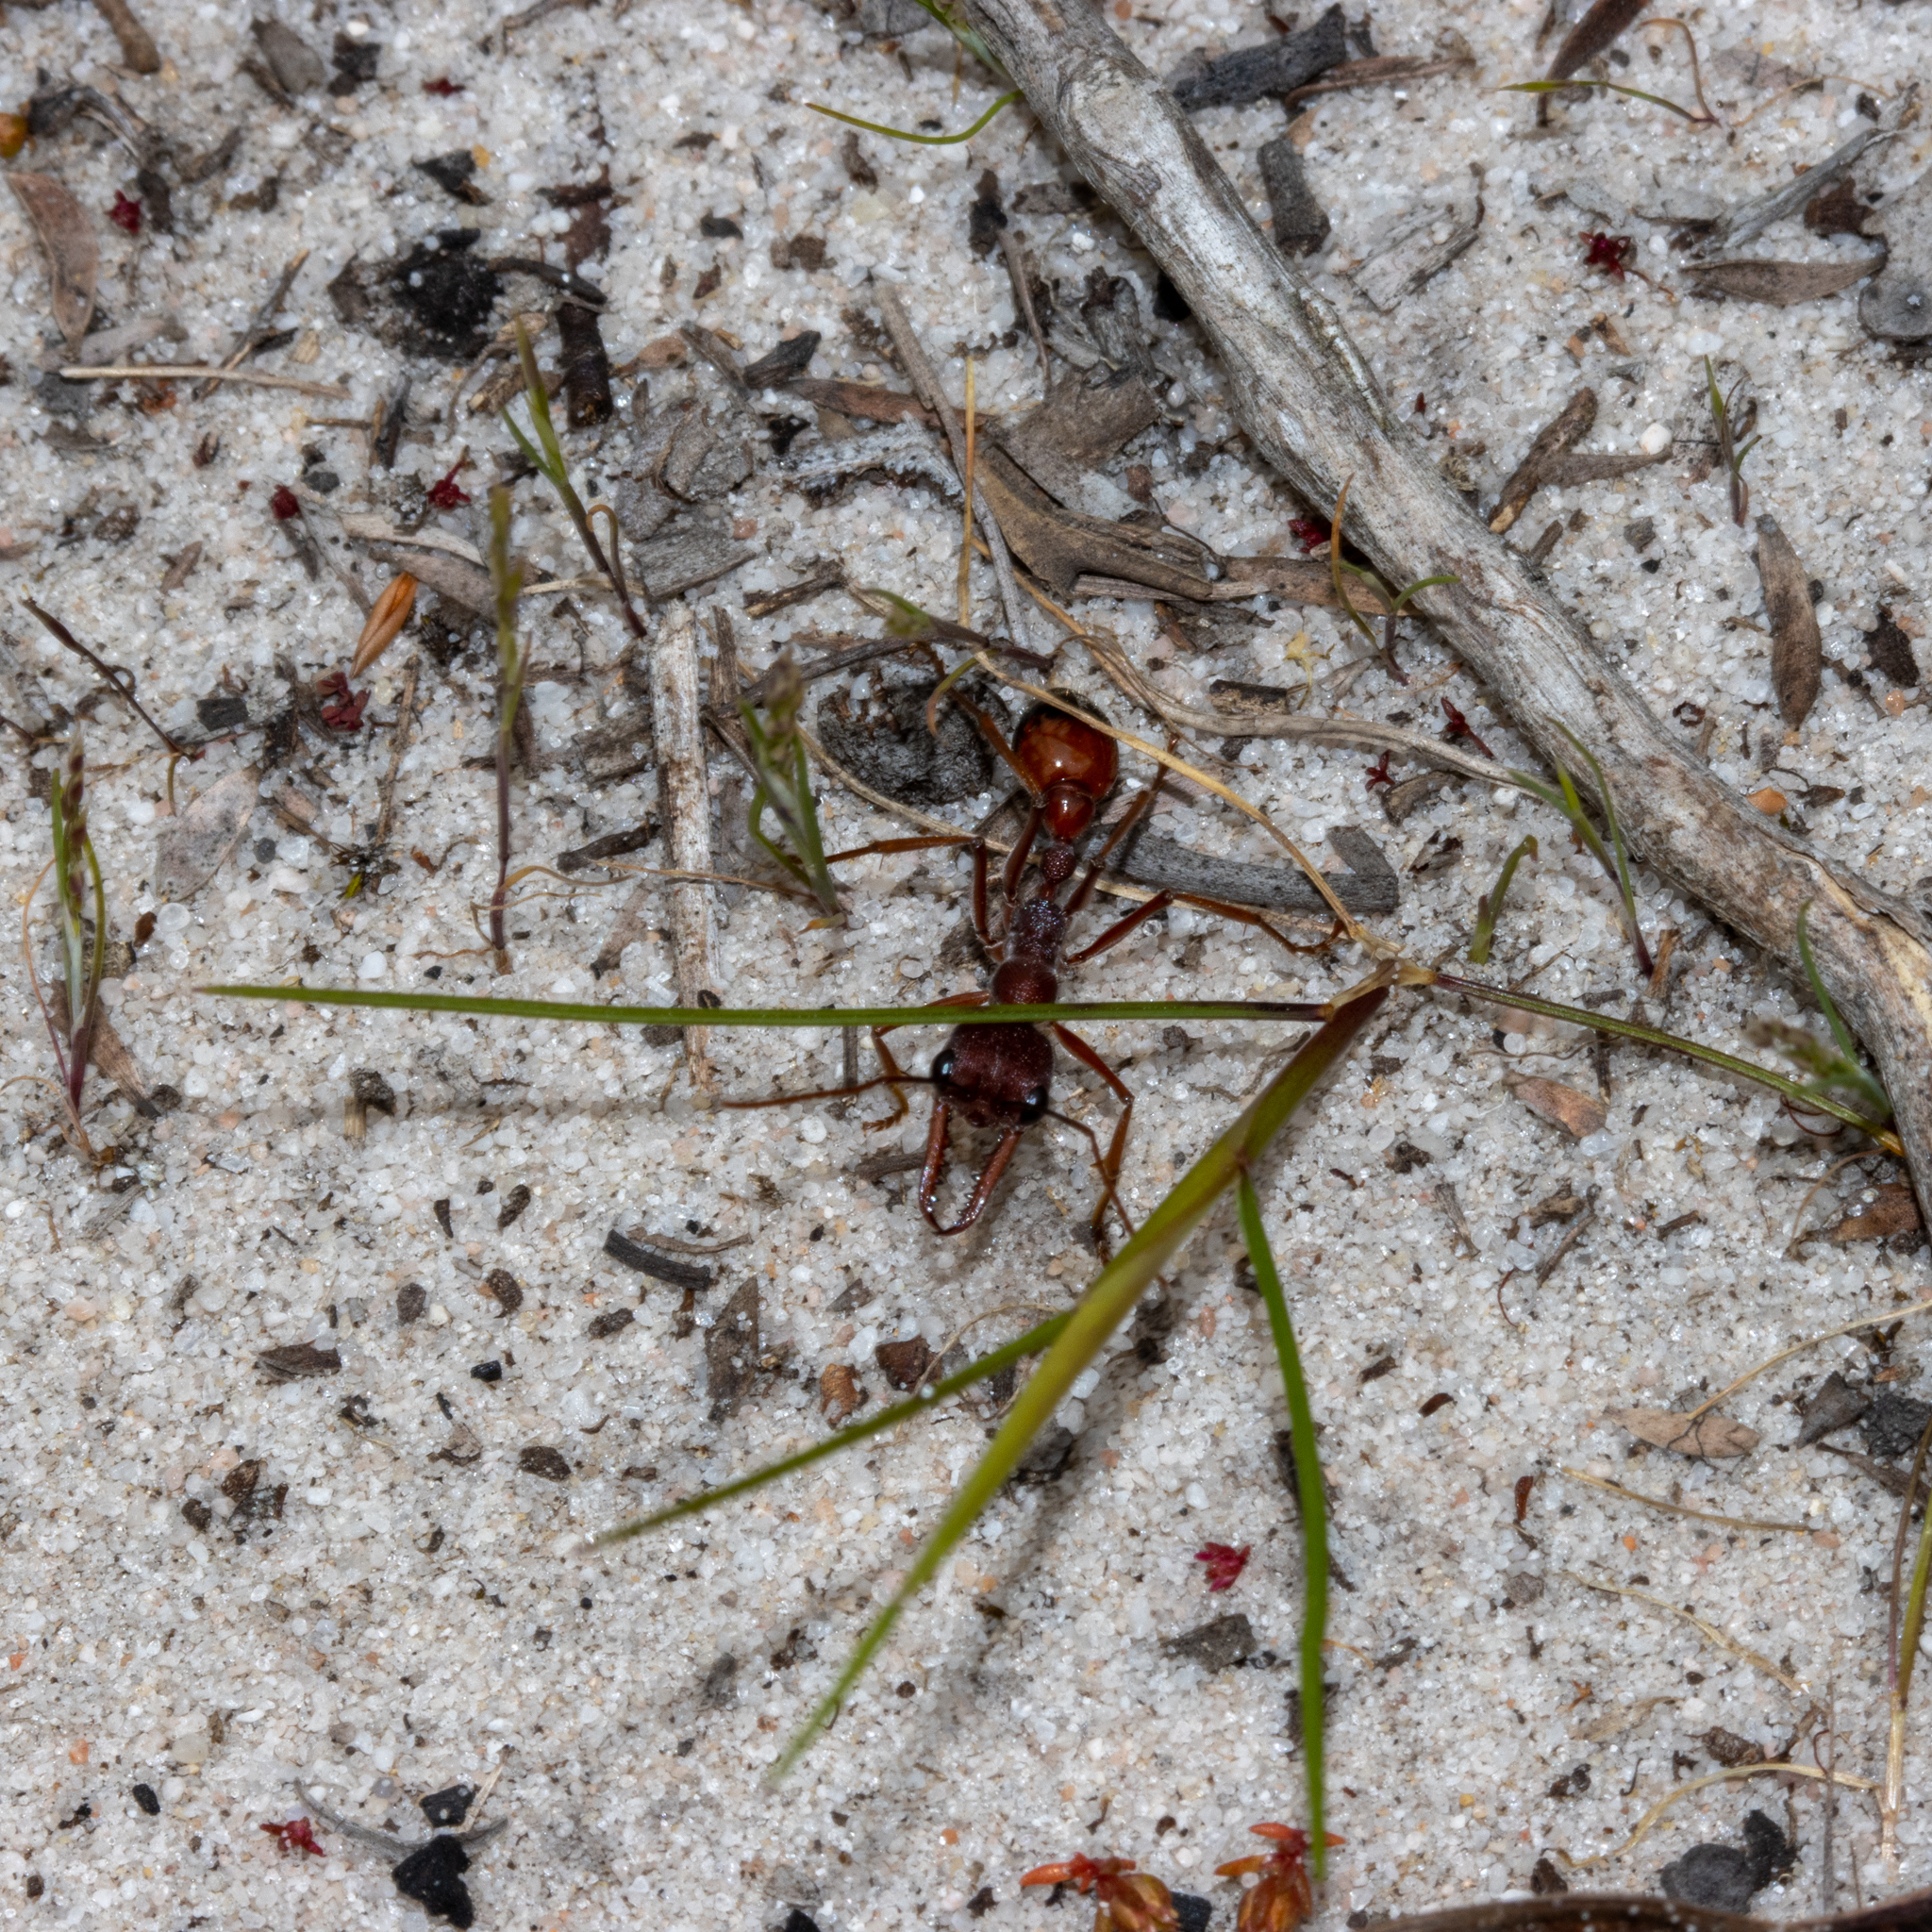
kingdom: Animalia
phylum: Arthropoda
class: Insecta
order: Hymenoptera
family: Formicidae
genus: Myrmecia
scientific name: Myrmecia nigriscapa
